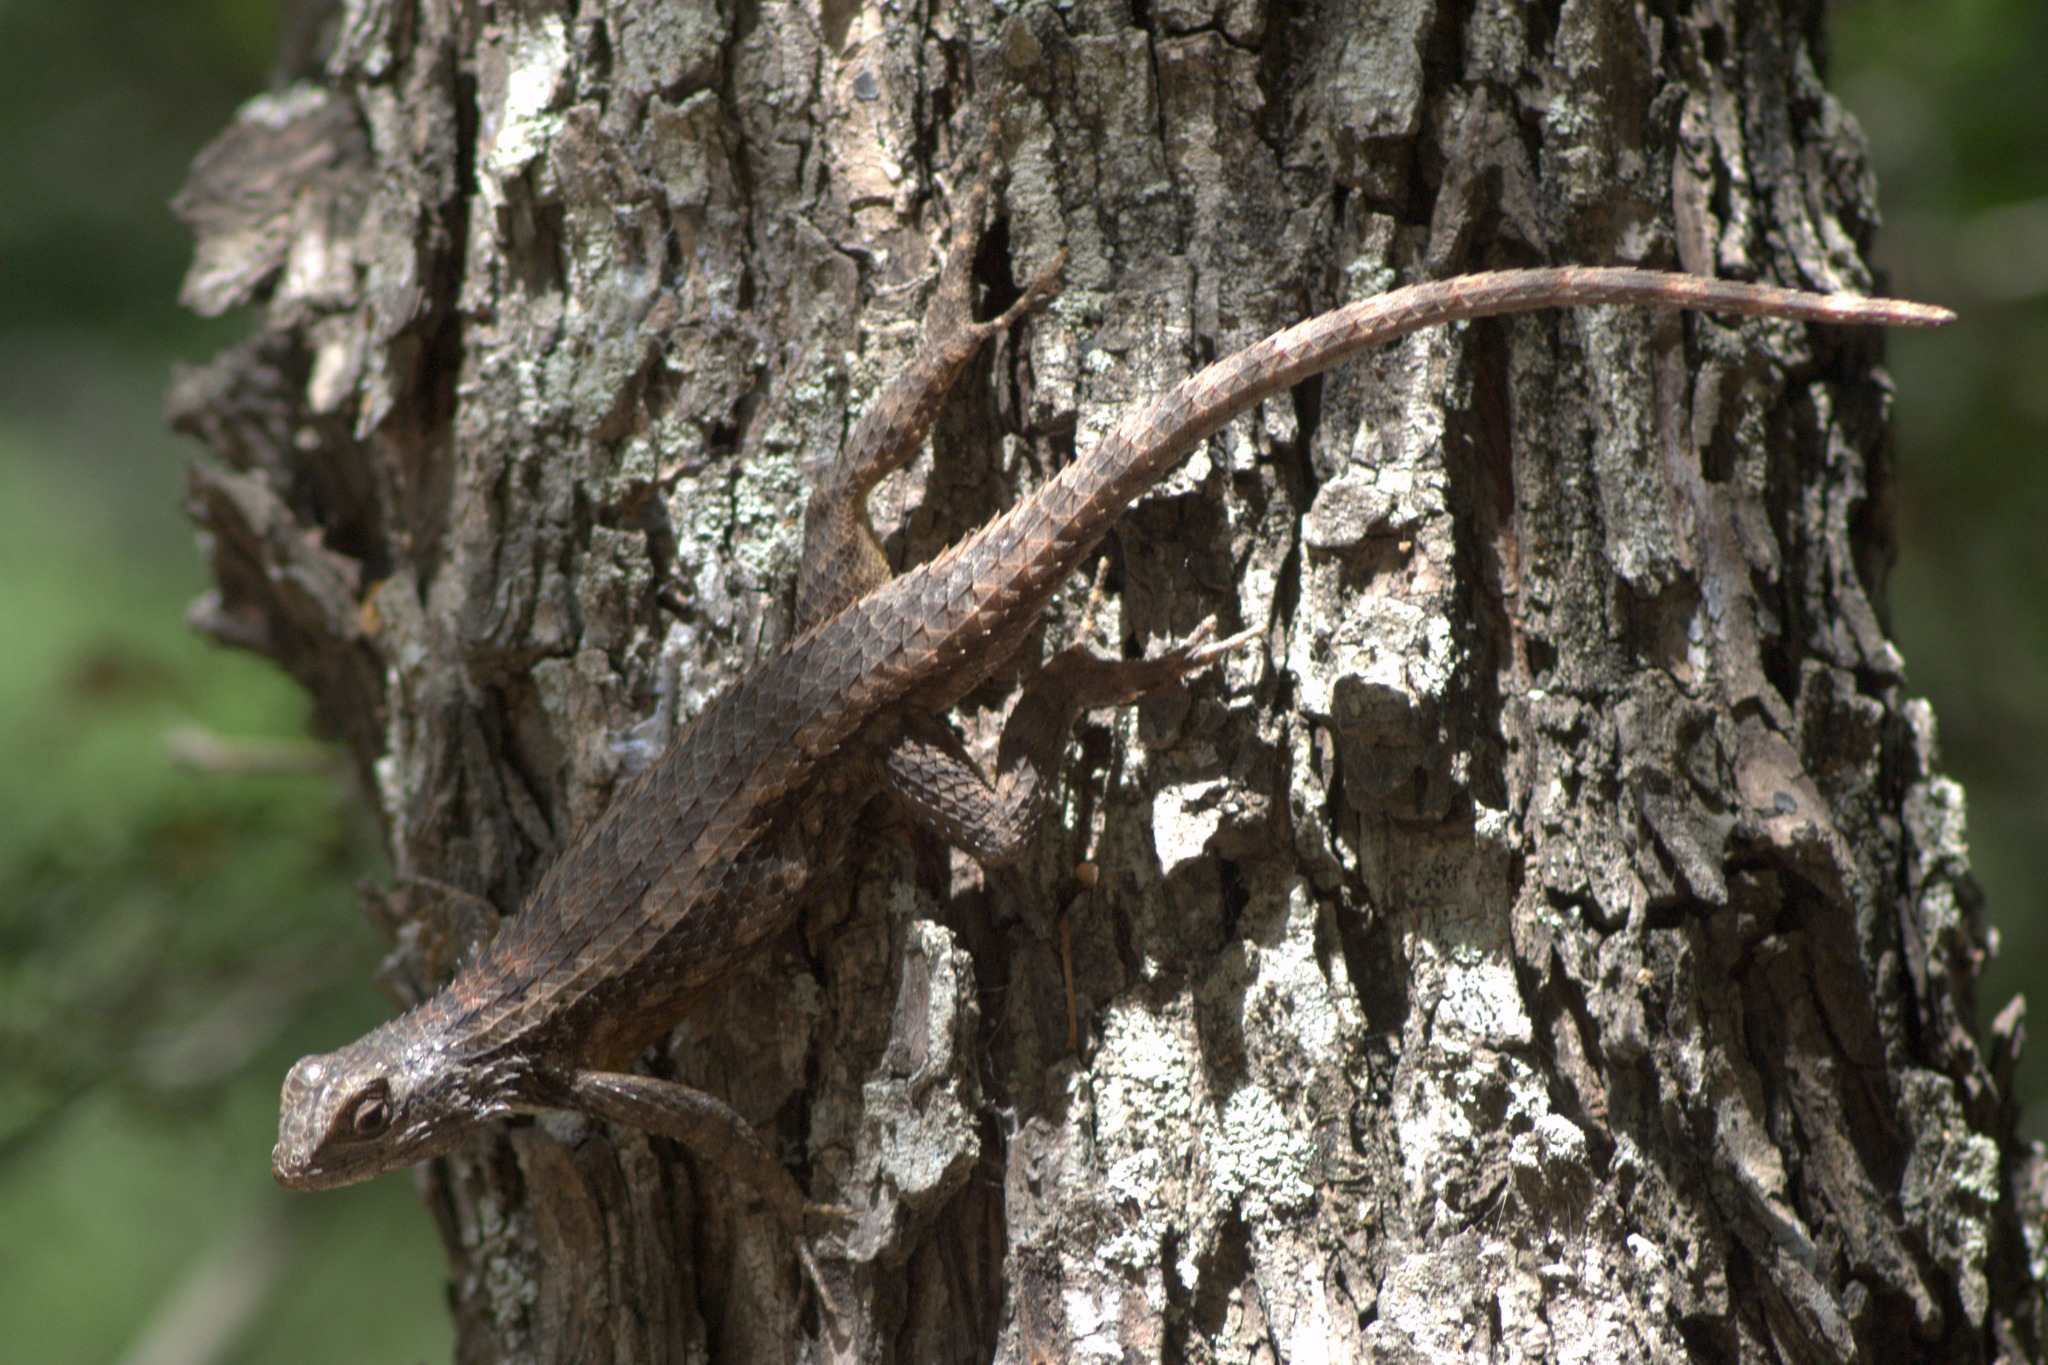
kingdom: Animalia
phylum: Chordata
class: Squamata
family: Phrynosomatidae
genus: Sceloporus
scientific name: Sceloporus olivaceus
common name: Texas spiny lizard
